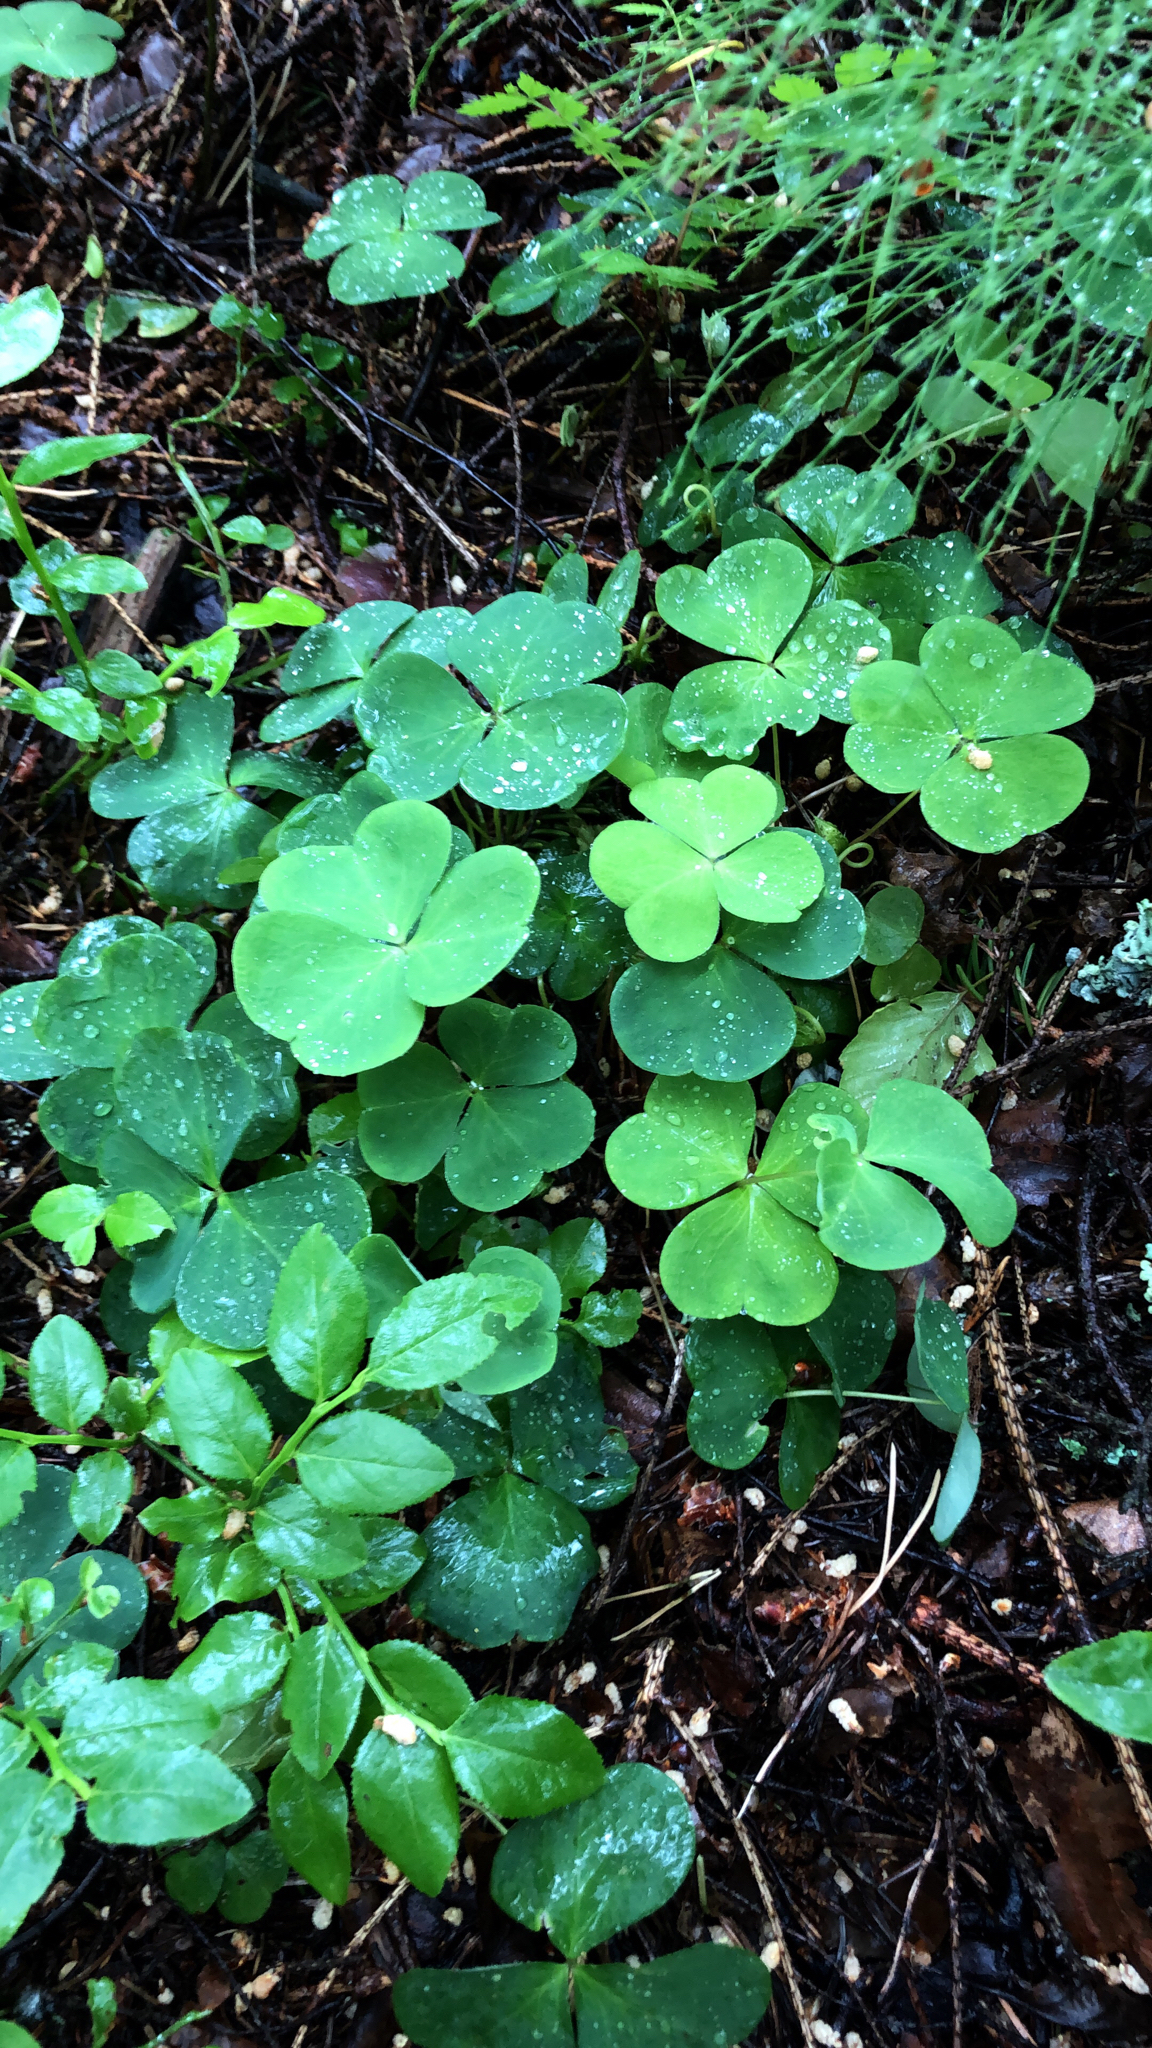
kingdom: Plantae
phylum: Tracheophyta
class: Magnoliopsida
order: Oxalidales
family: Oxalidaceae
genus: Oxalis
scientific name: Oxalis acetosella
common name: Wood-sorrel
